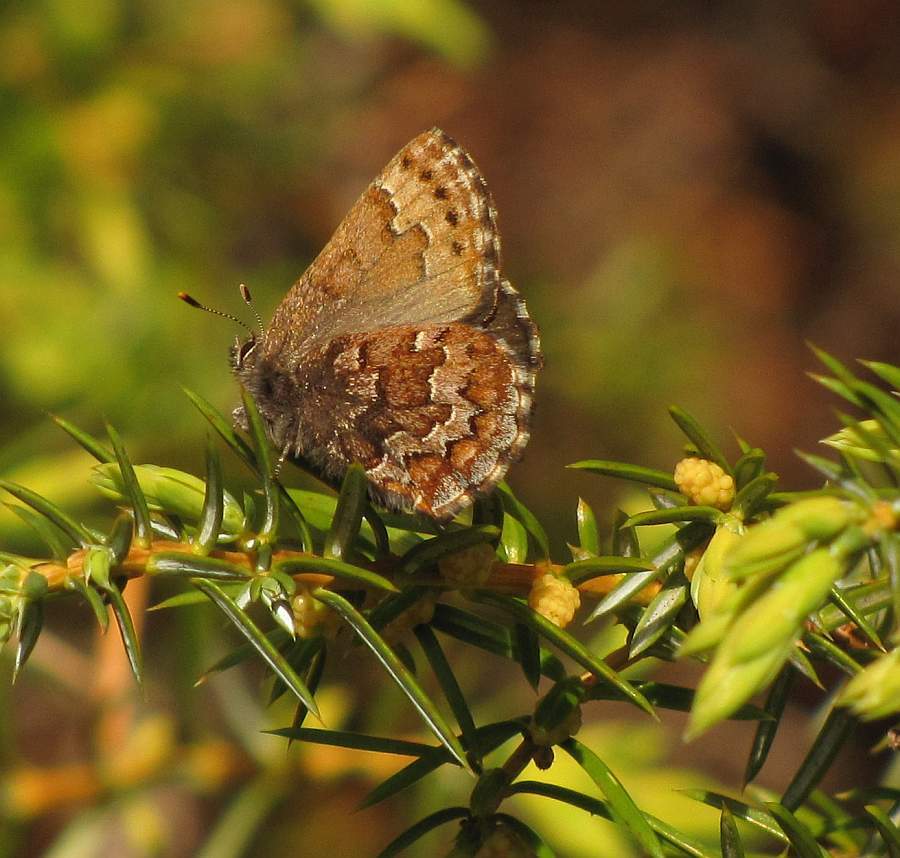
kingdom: Animalia
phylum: Arthropoda
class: Insecta
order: Lepidoptera
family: Lycaenidae
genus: Incisalia
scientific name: Incisalia niphon
